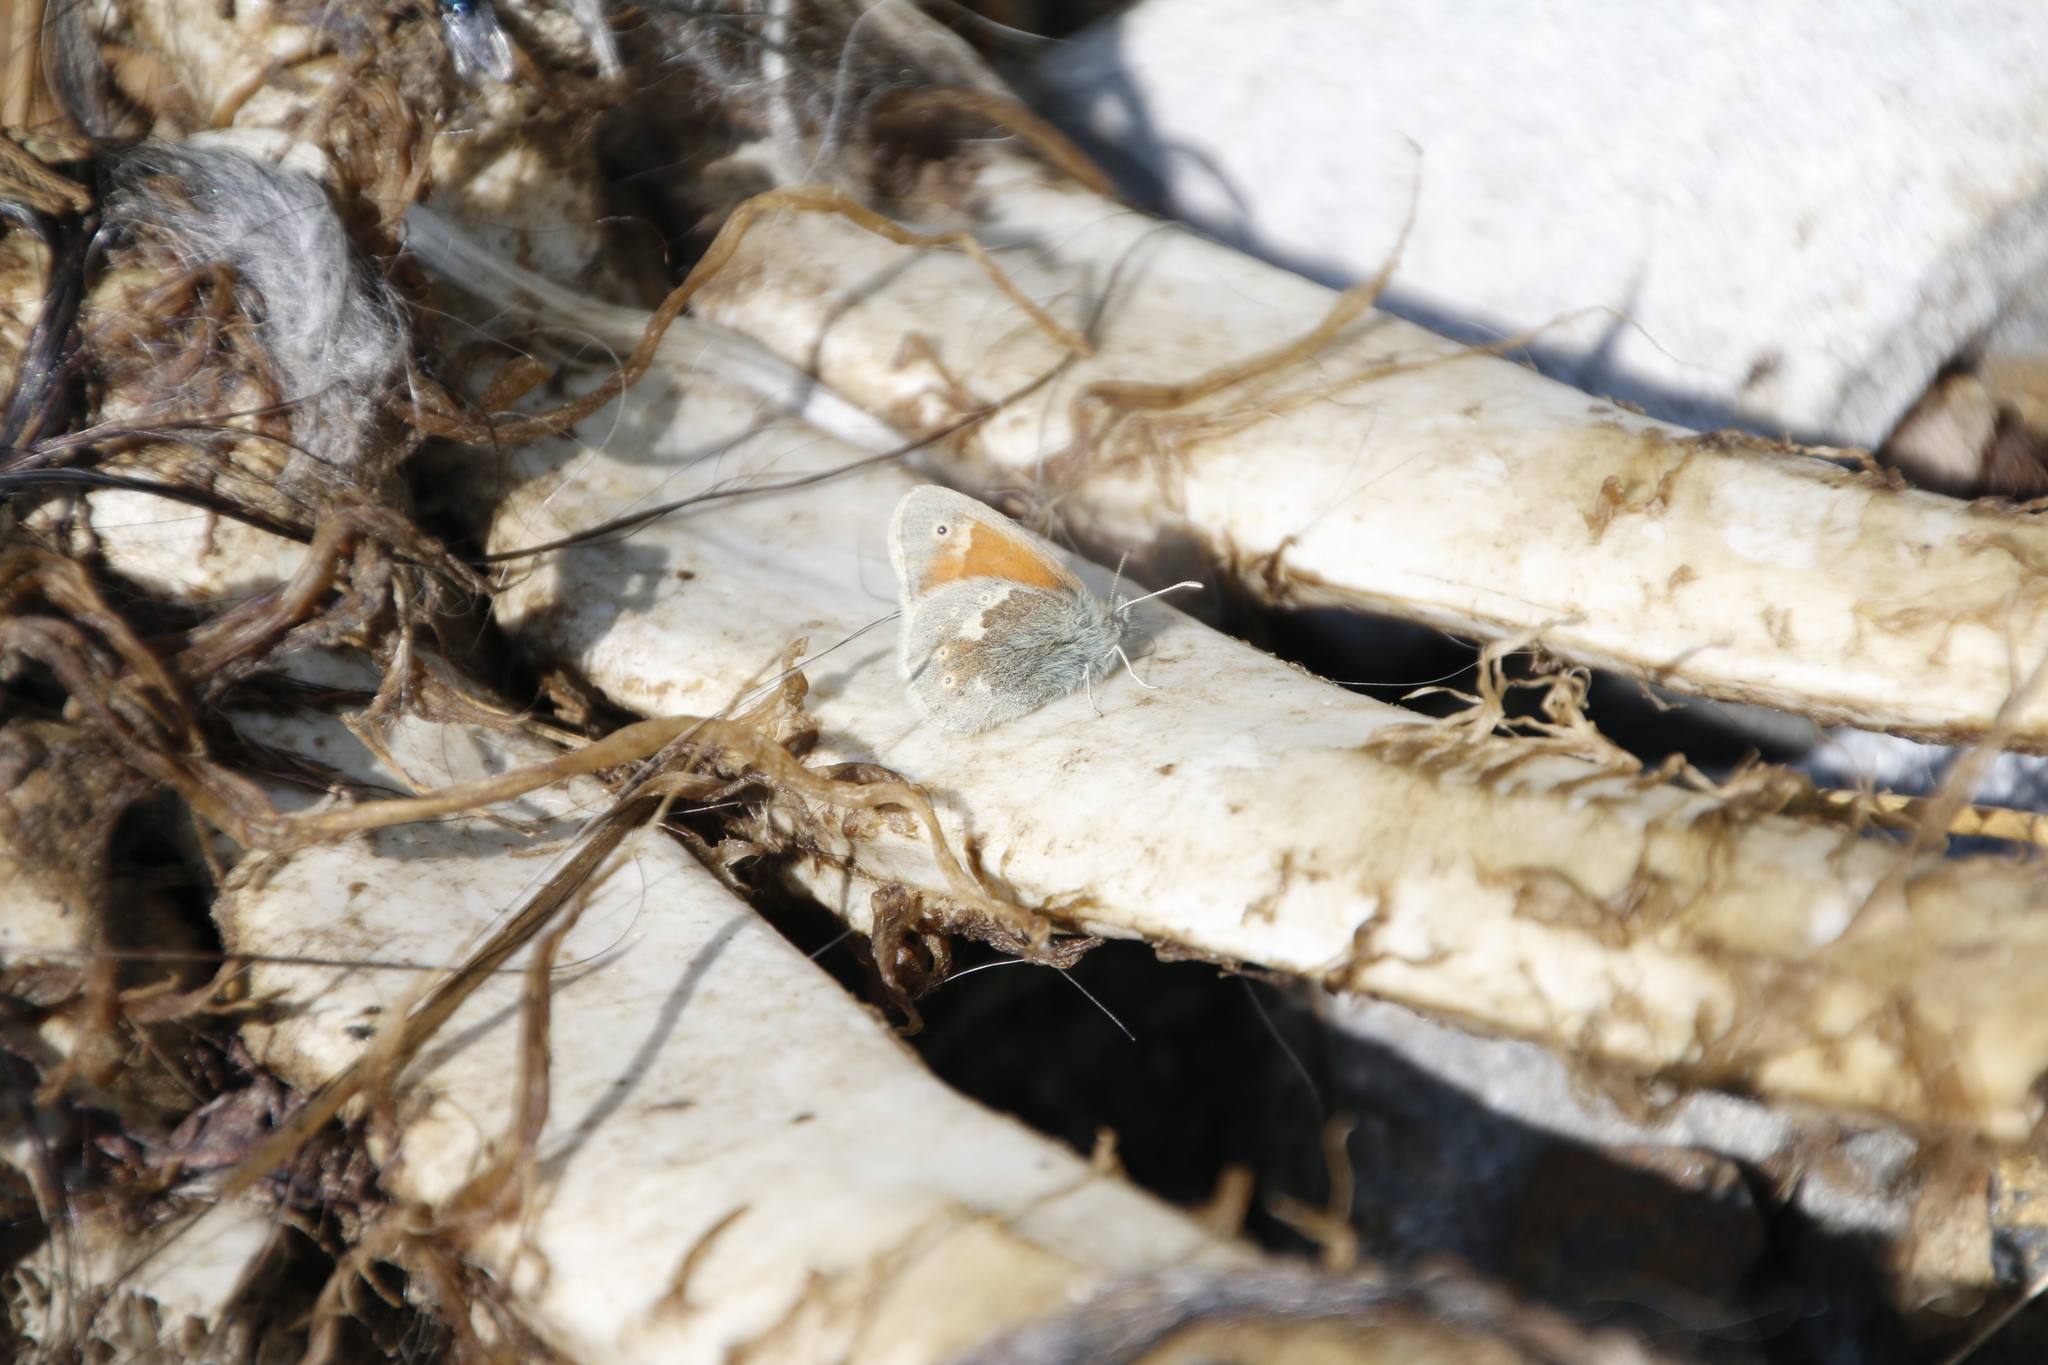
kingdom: Animalia
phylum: Arthropoda
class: Insecta
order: Lepidoptera
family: Nymphalidae
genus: Coenonympha
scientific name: Coenonympha tullia
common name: Large heath
